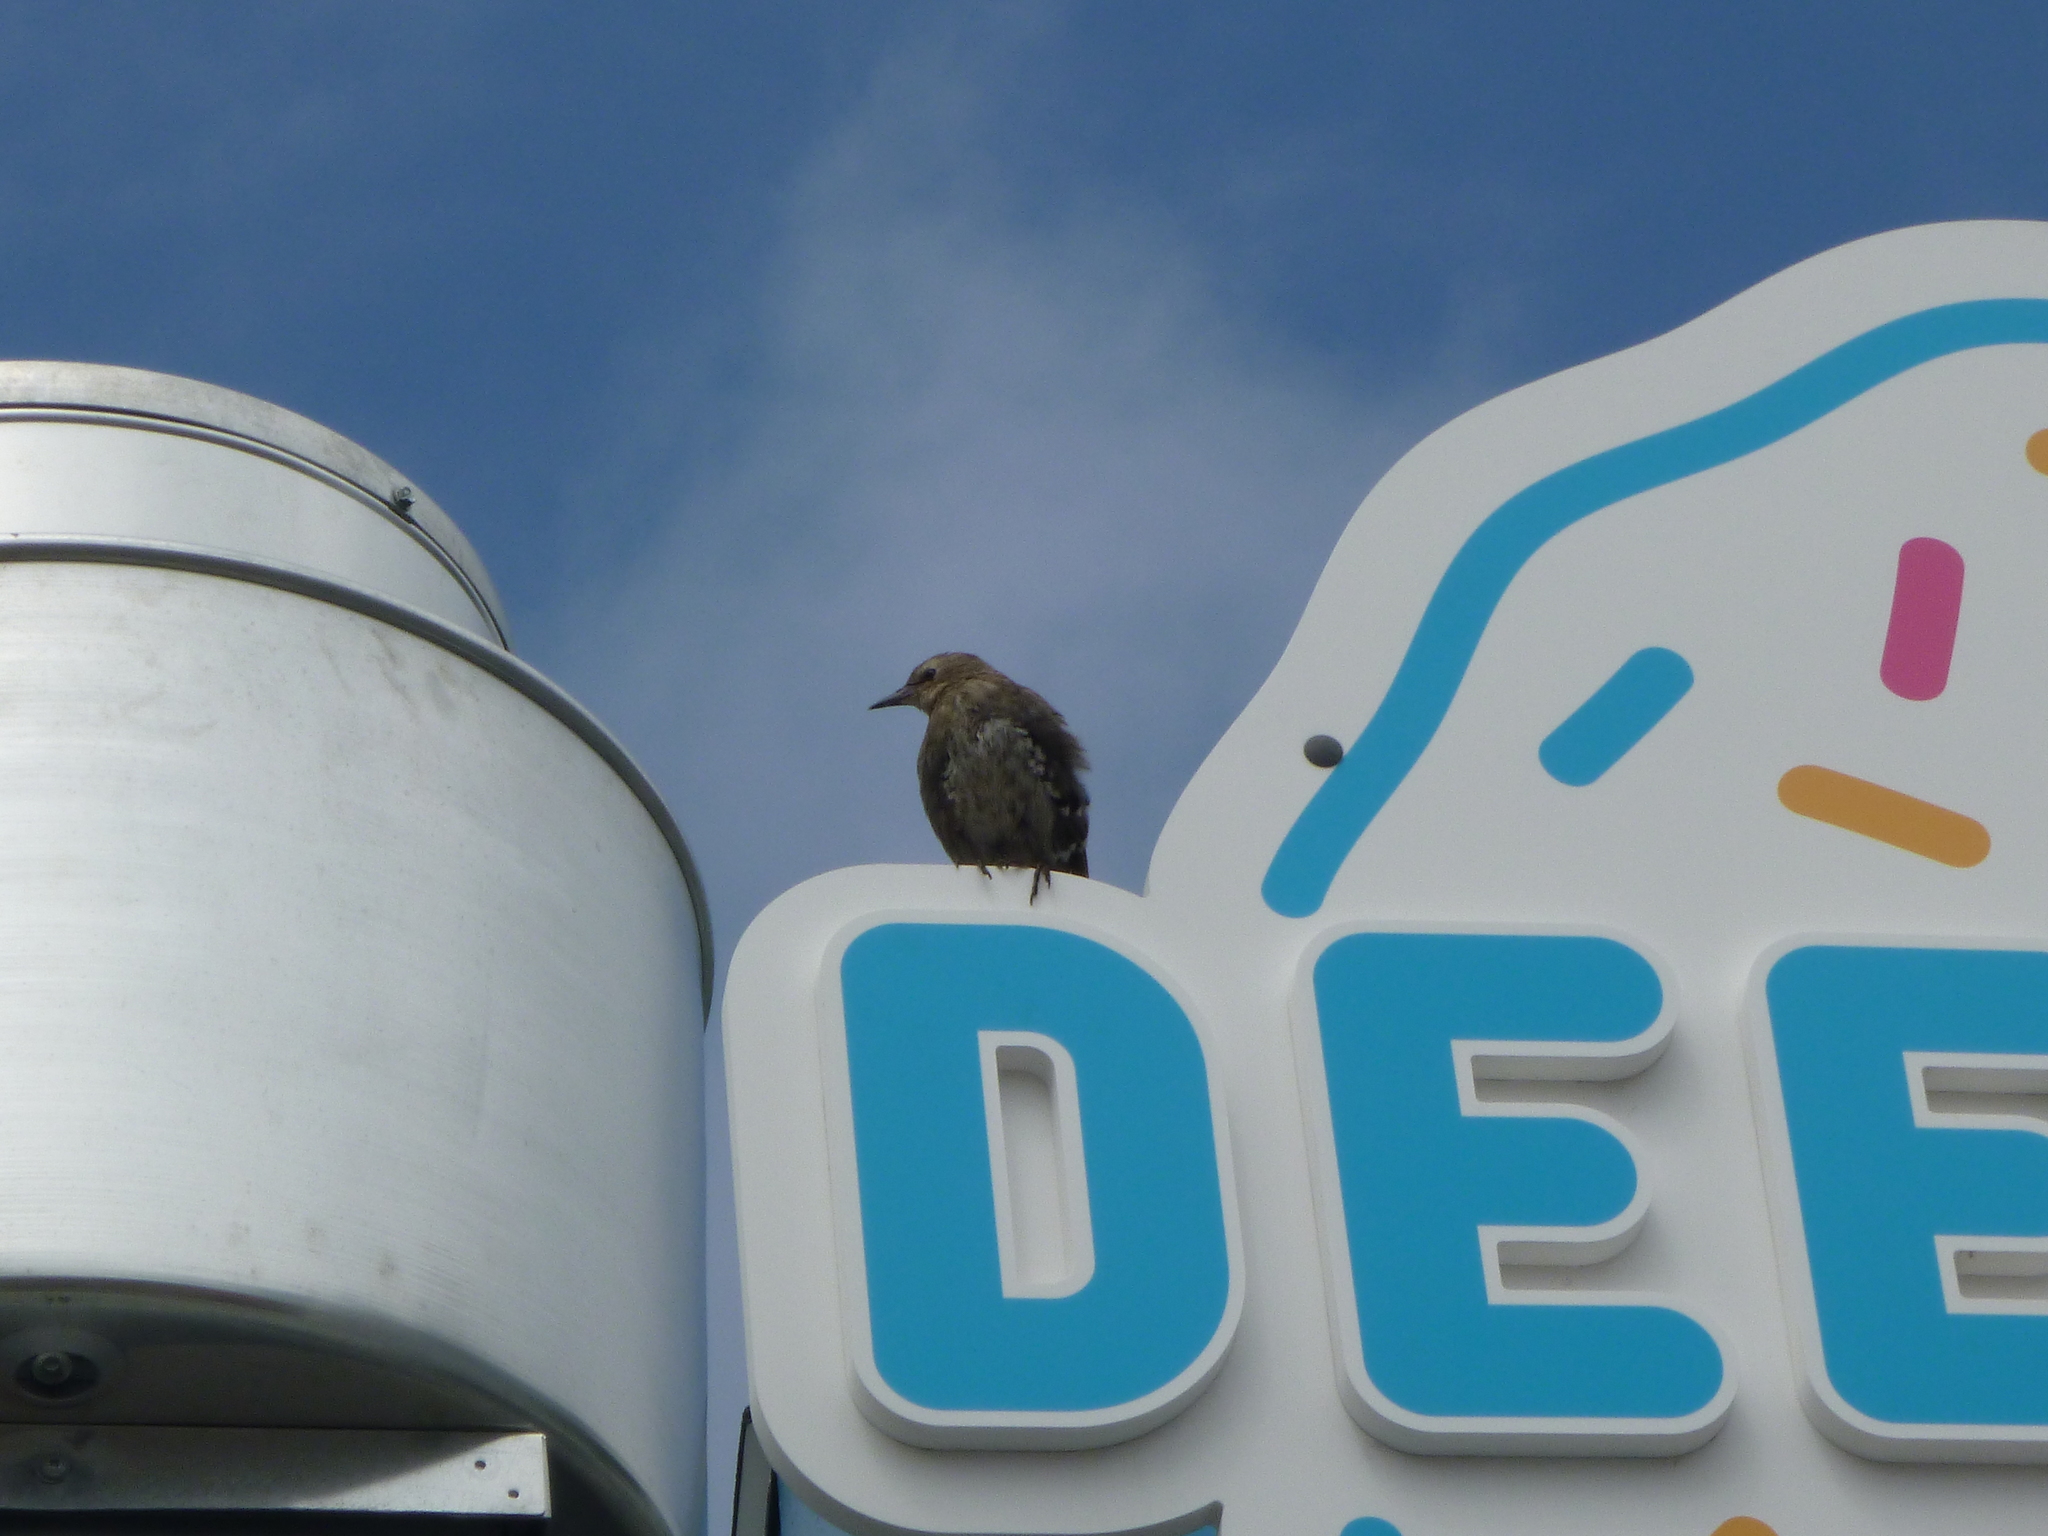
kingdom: Animalia
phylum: Chordata
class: Aves
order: Passeriformes
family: Sturnidae
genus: Sturnus
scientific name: Sturnus vulgaris
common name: Common starling
